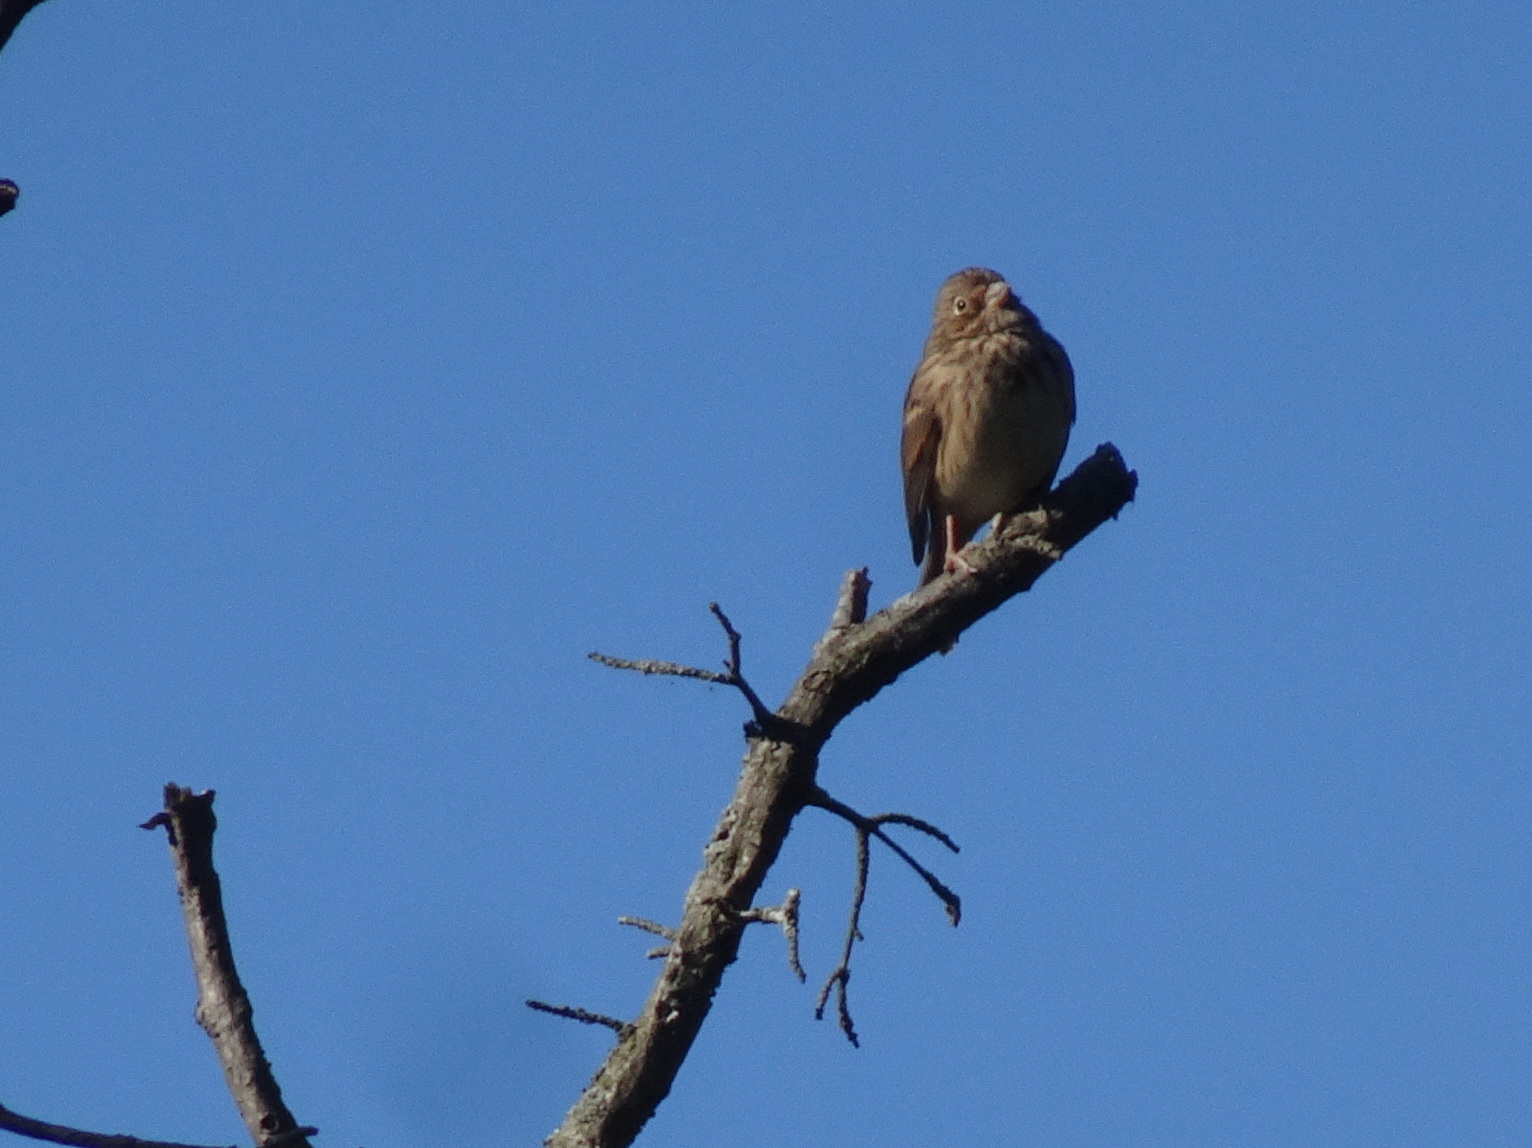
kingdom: Animalia
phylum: Chordata
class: Aves
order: Passeriformes
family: Passerellidae
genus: Pooecetes
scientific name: Pooecetes gramineus
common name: Vesper sparrow
